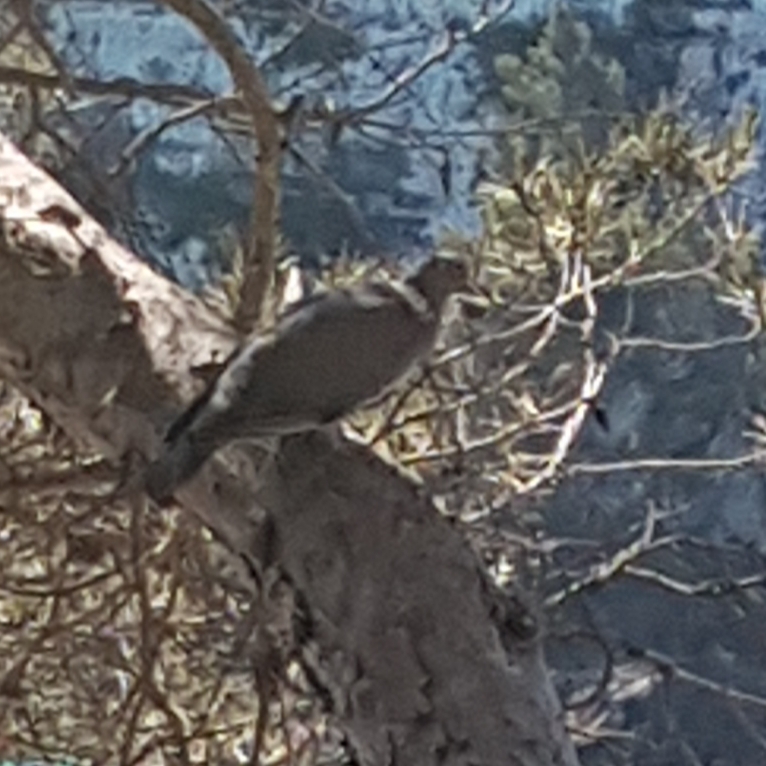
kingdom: Animalia
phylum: Chordata
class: Aves
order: Columbiformes
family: Columbidae
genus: Columba
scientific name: Columba palumbus
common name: Common wood pigeon
